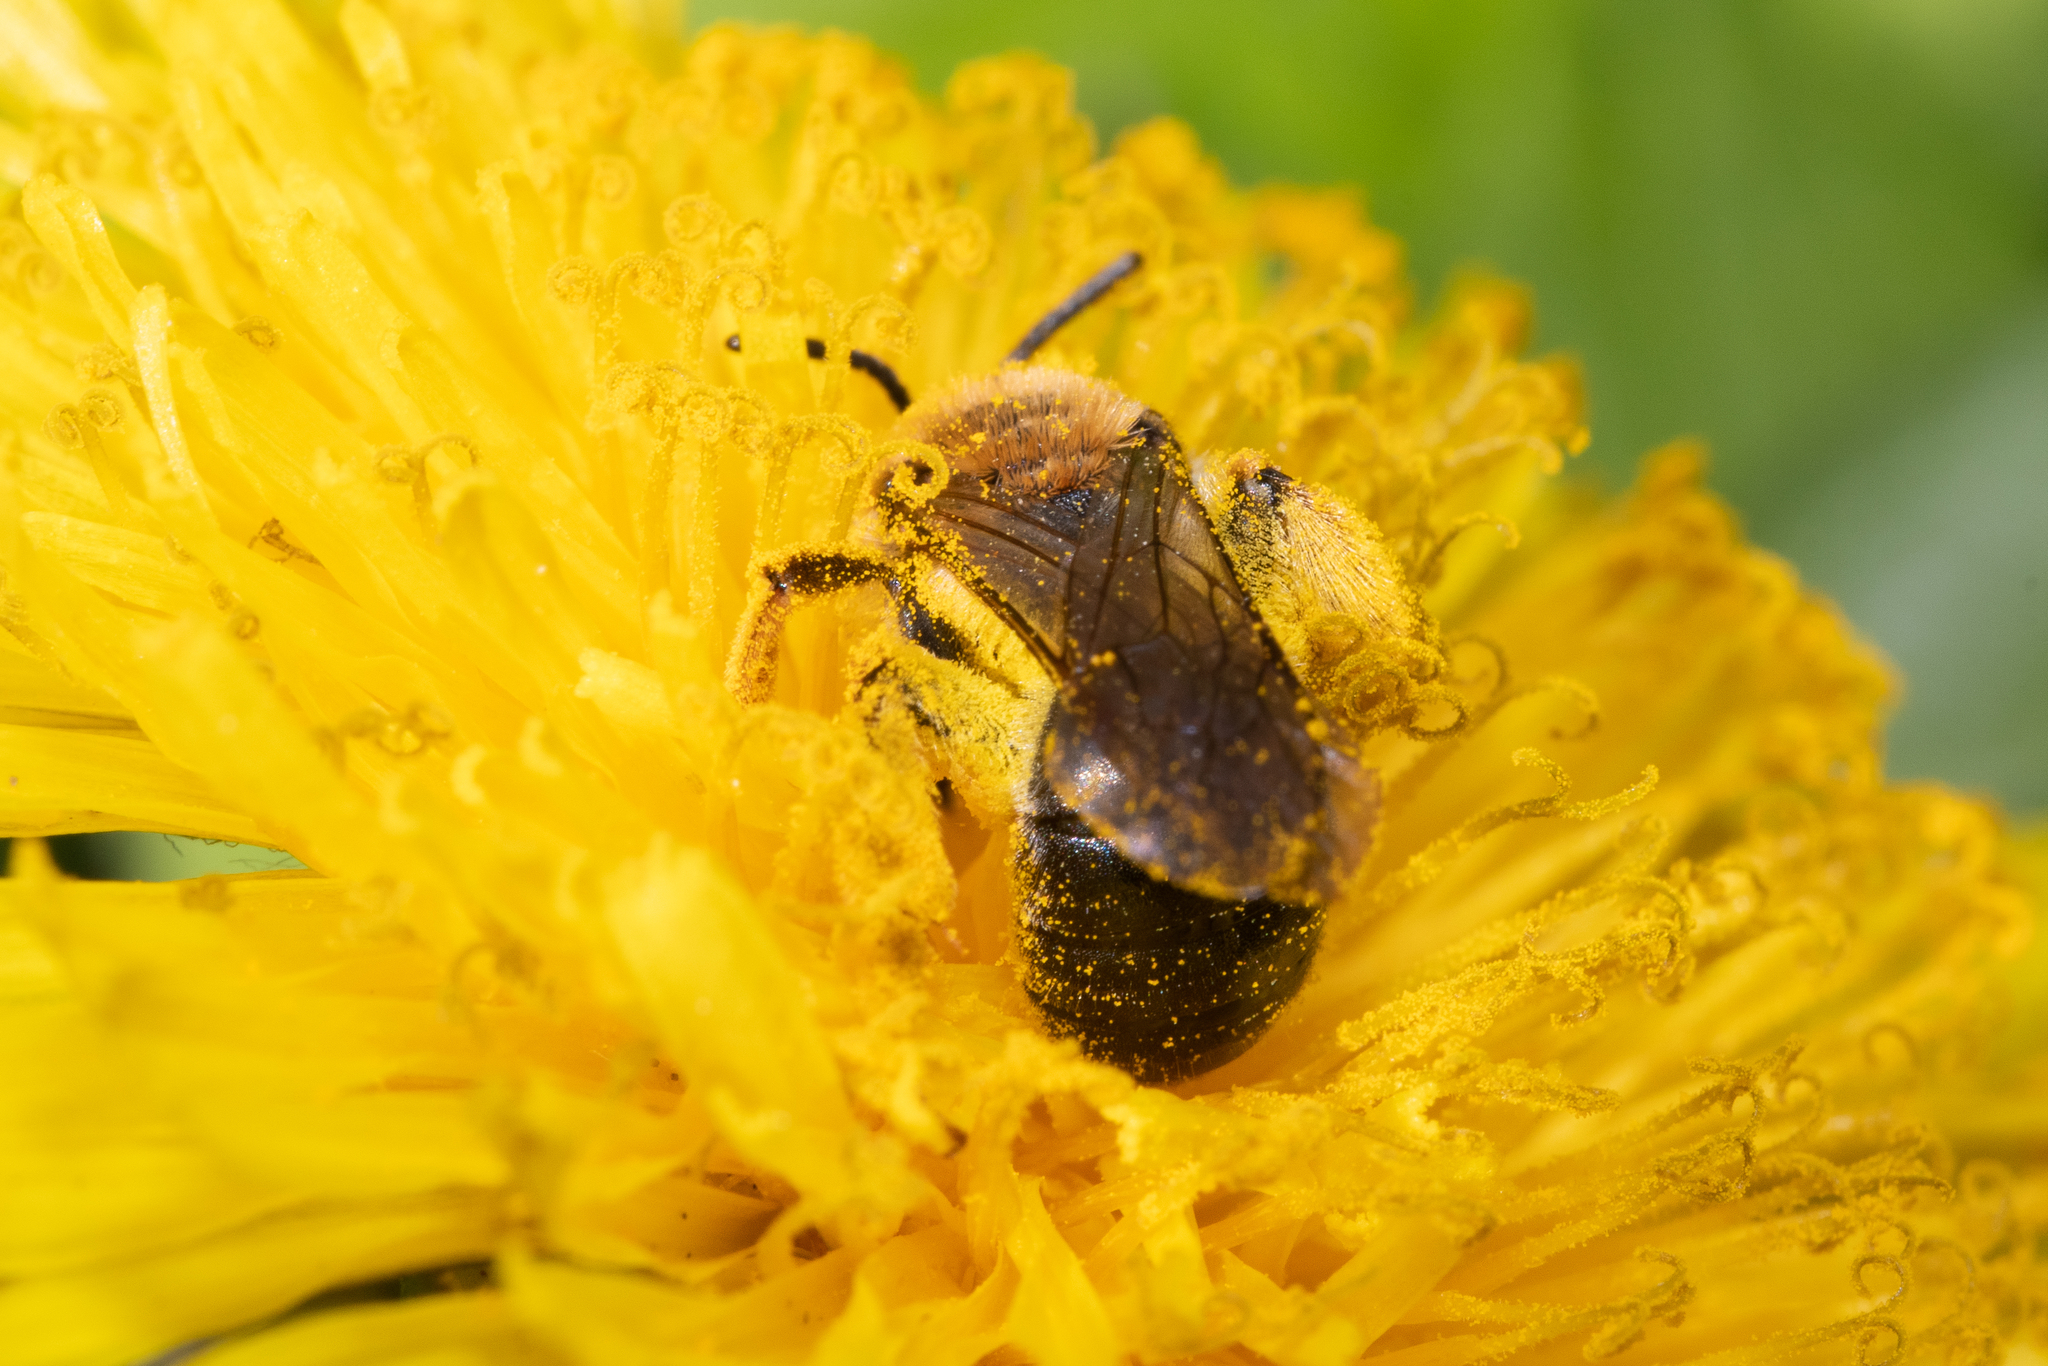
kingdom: Animalia
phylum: Arthropoda
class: Insecta
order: Hymenoptera
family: Andrenidae
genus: Andrena
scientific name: Andrena haemorrhoa
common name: Early mining bee
